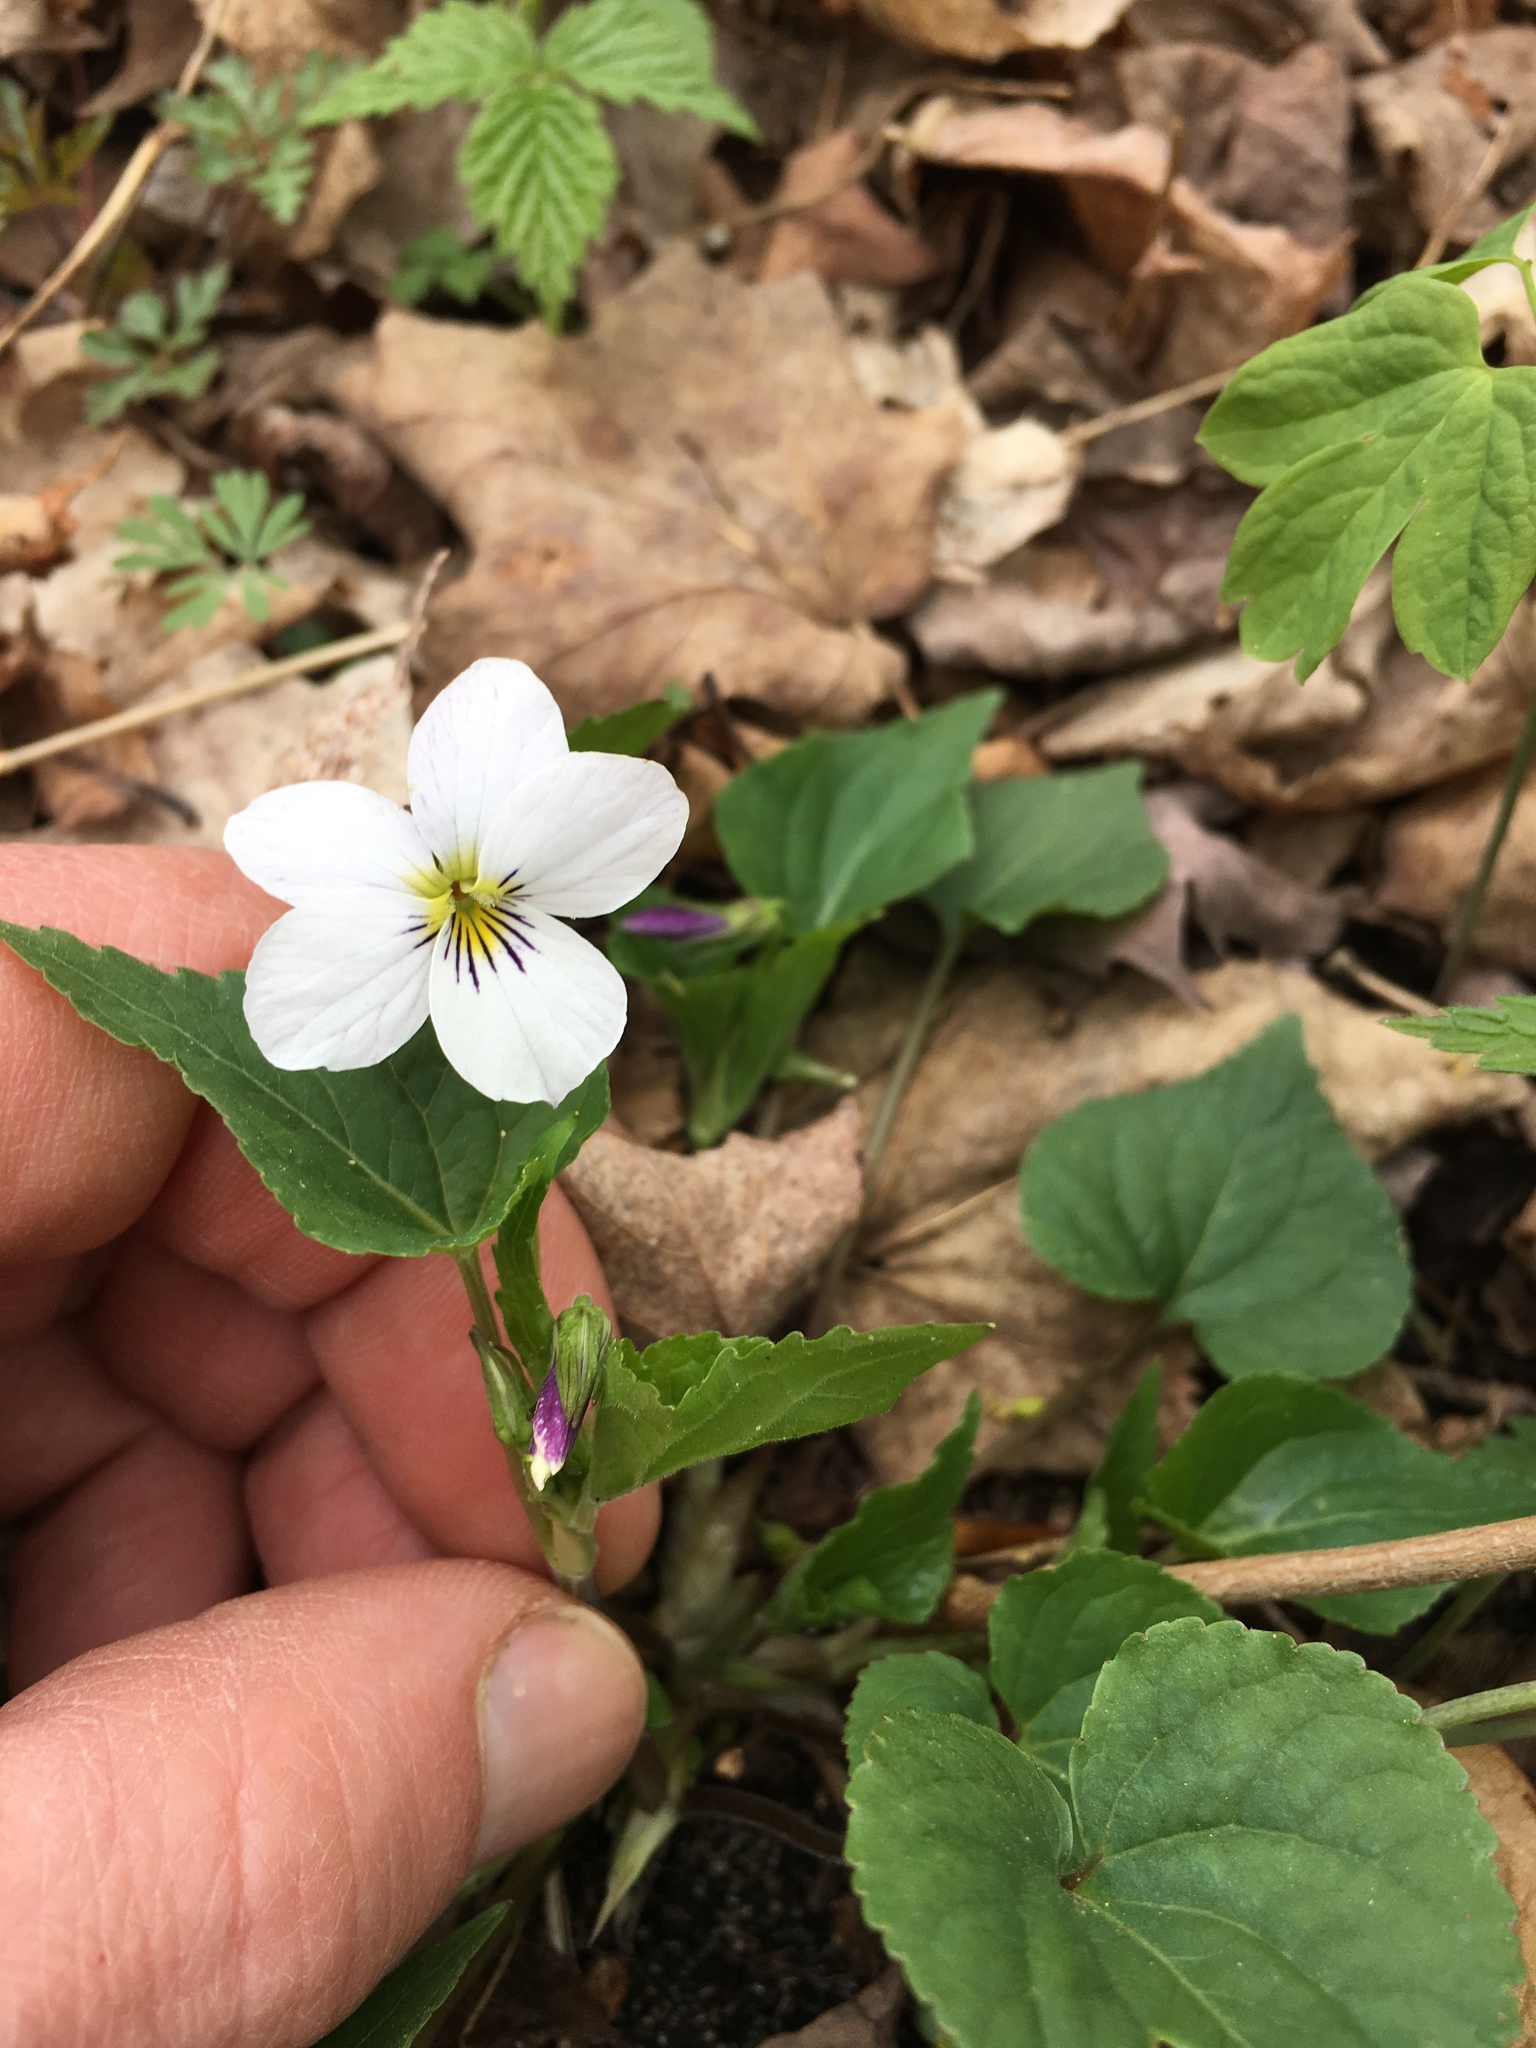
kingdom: Plantae
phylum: Tracheophyta
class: Magnoliopsida
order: Malpighiales
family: Violaceae
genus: Viola
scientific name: Viola canadensis
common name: Canada violet
